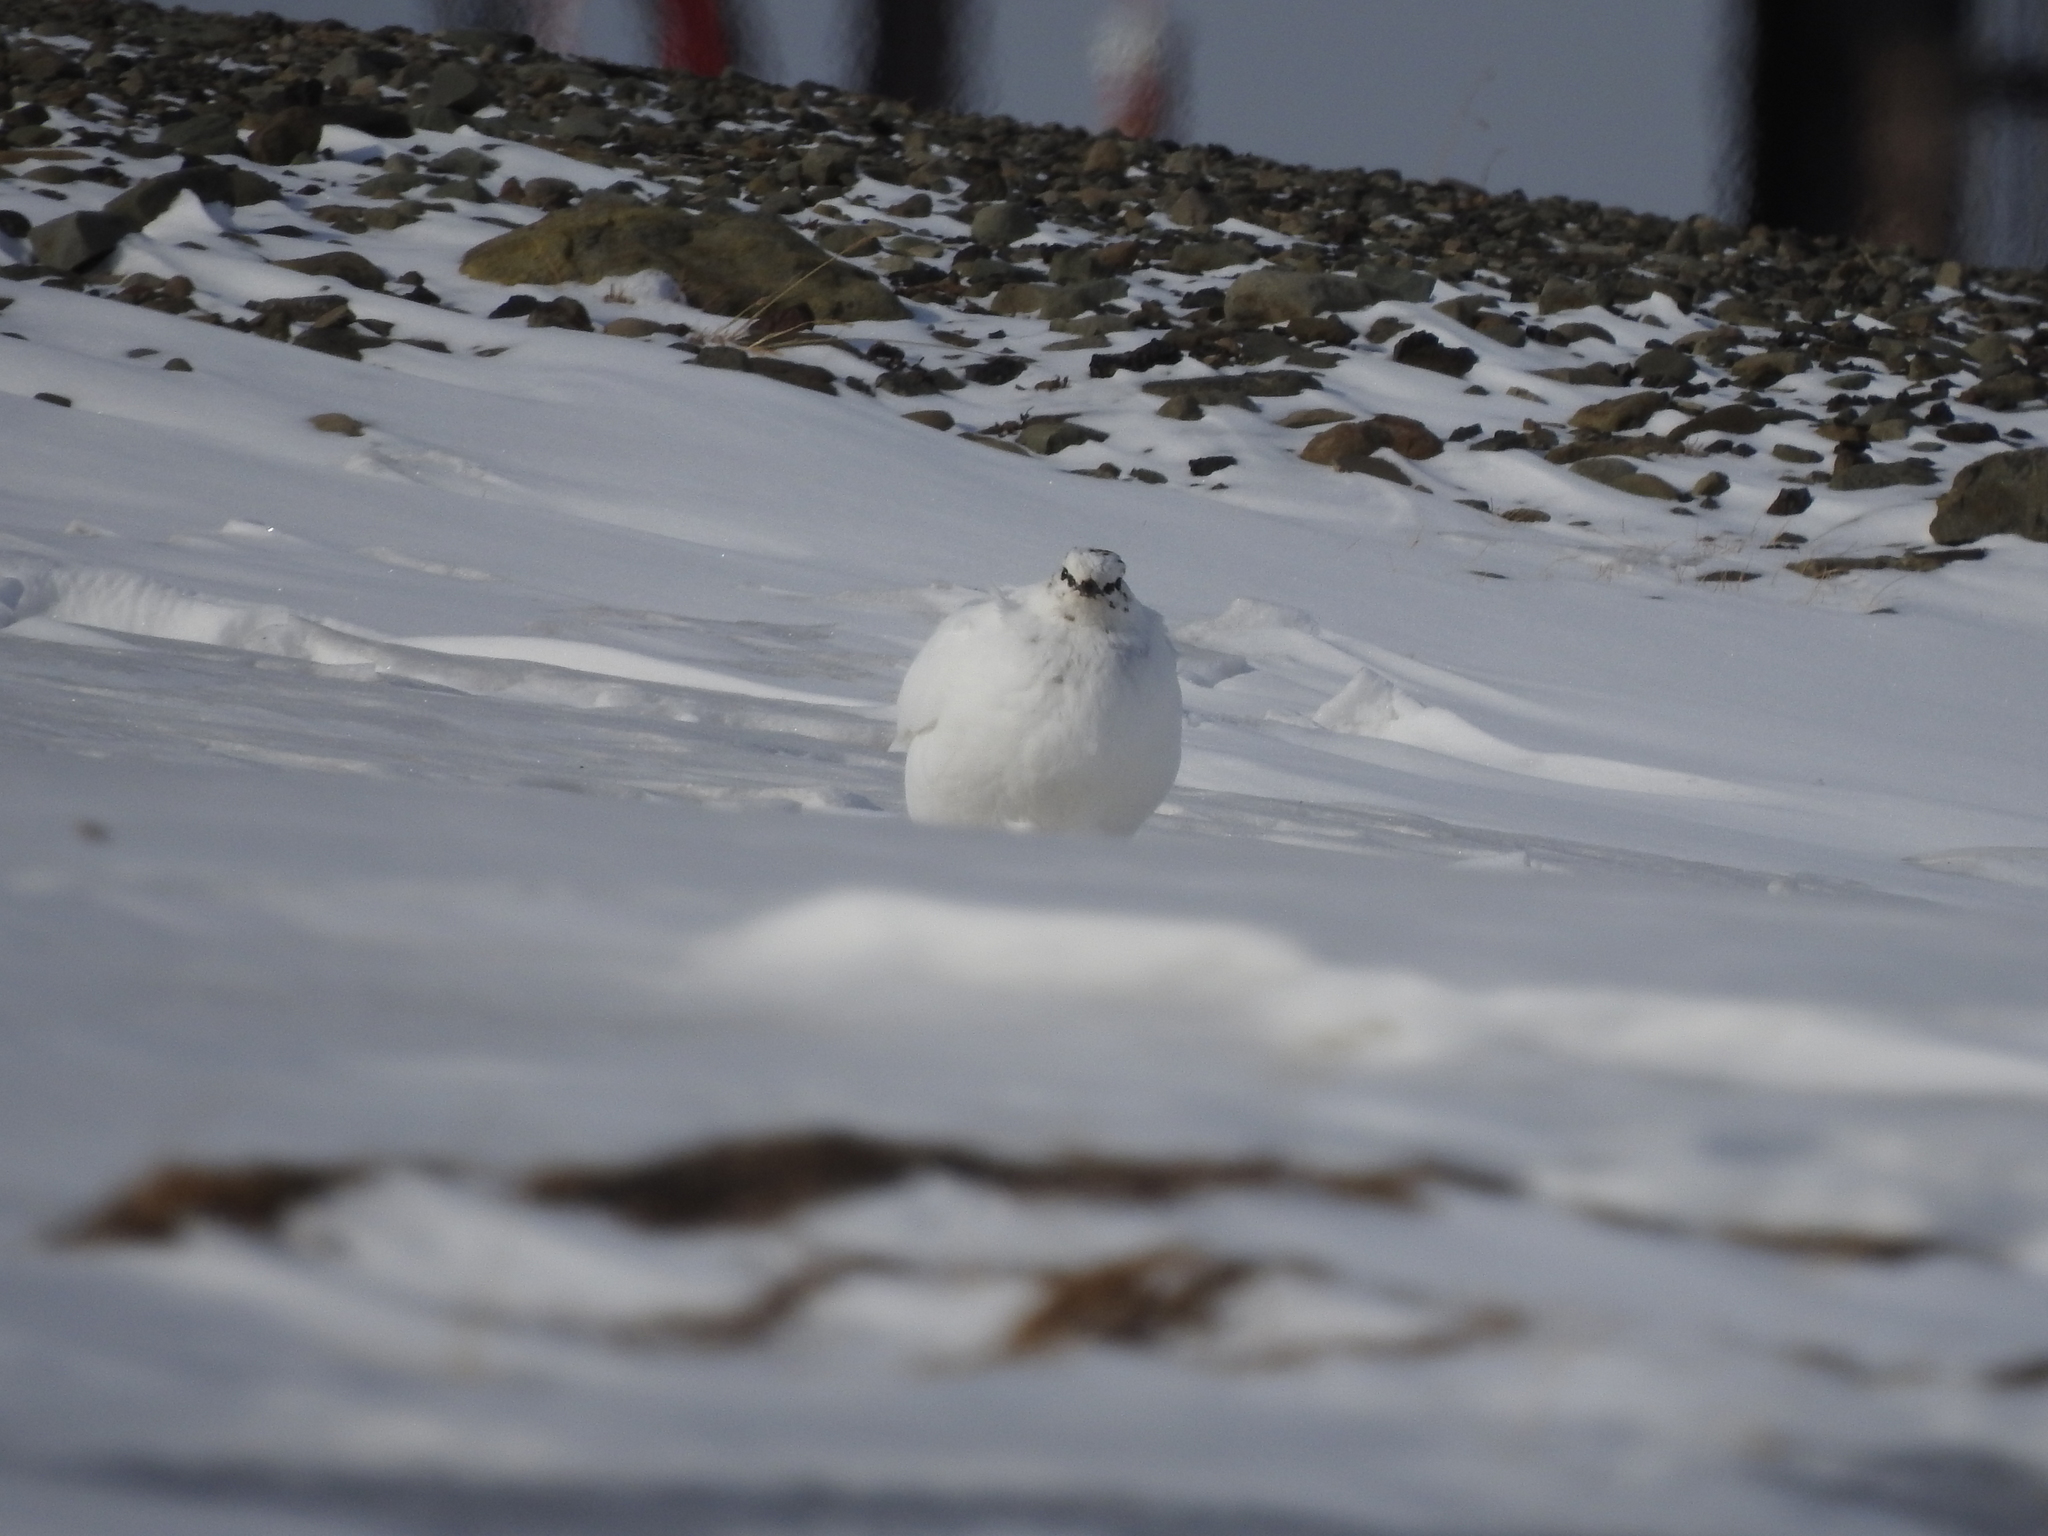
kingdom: Animalia
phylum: Chordata
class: Aves
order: Galliformes
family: Phasianidae
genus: Lagopus
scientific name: Lagopus muta
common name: Rock ptarmigan
